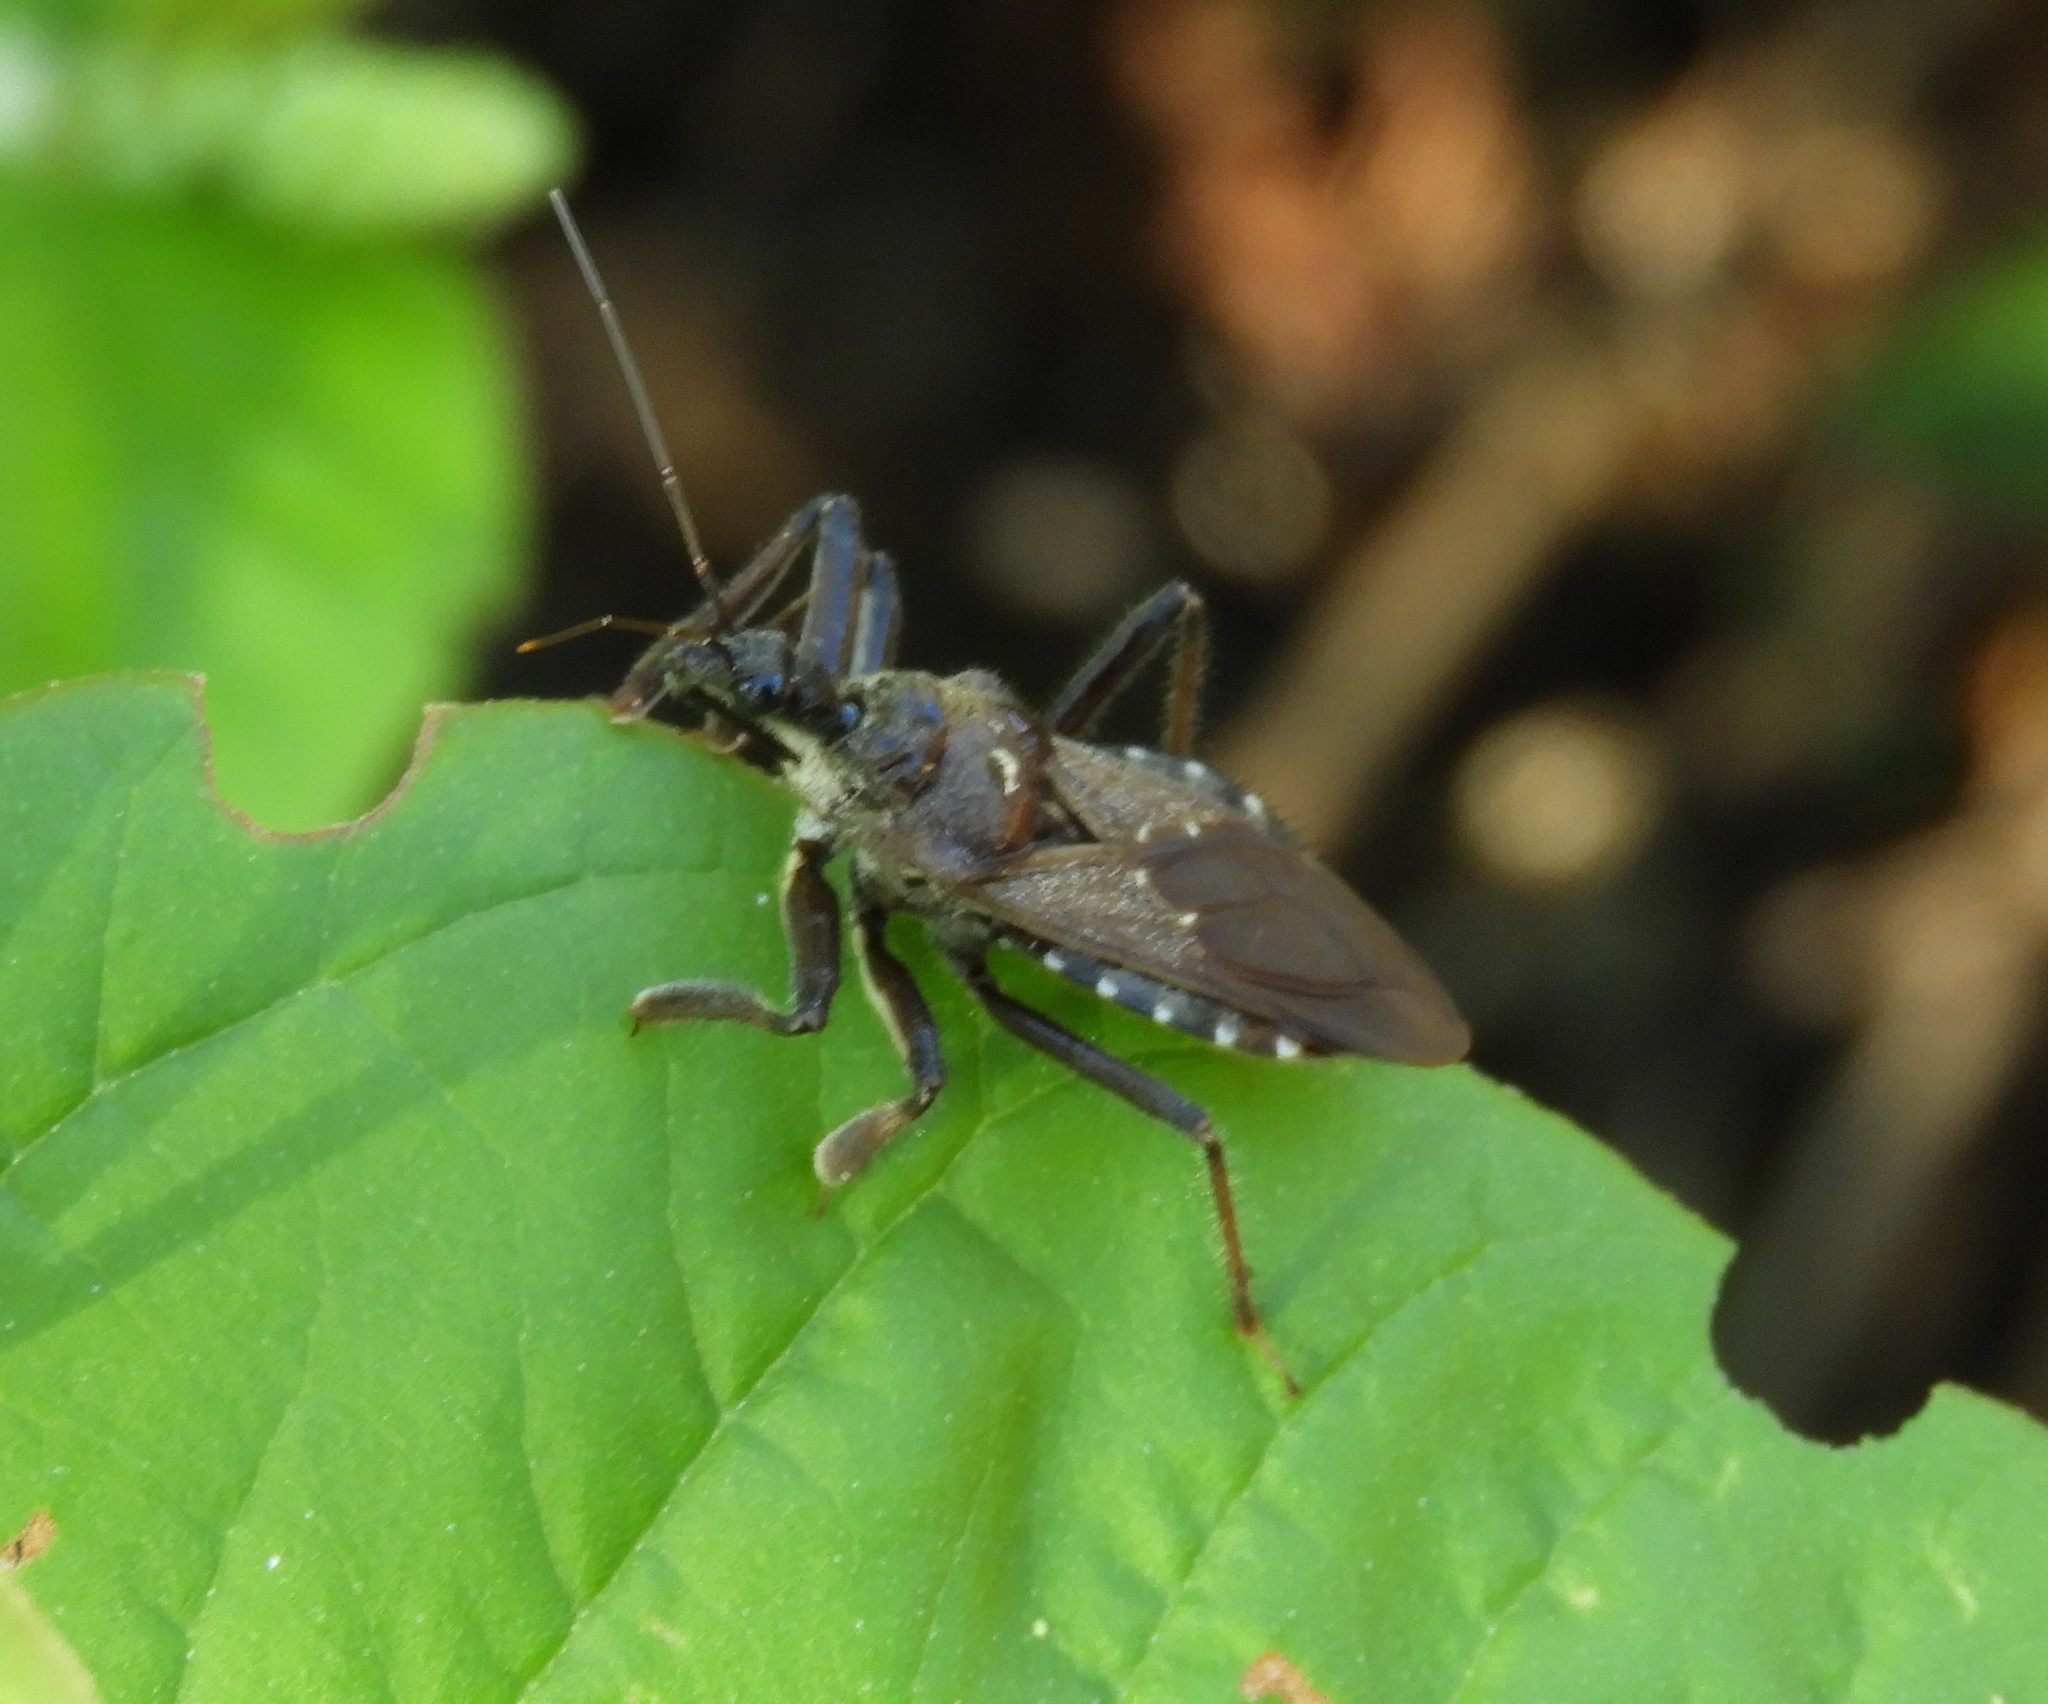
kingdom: Animalia
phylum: Arthropoda
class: Insecta
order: Hemiptera
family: Reduviidae
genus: Apiomerus
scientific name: Apiomerus
